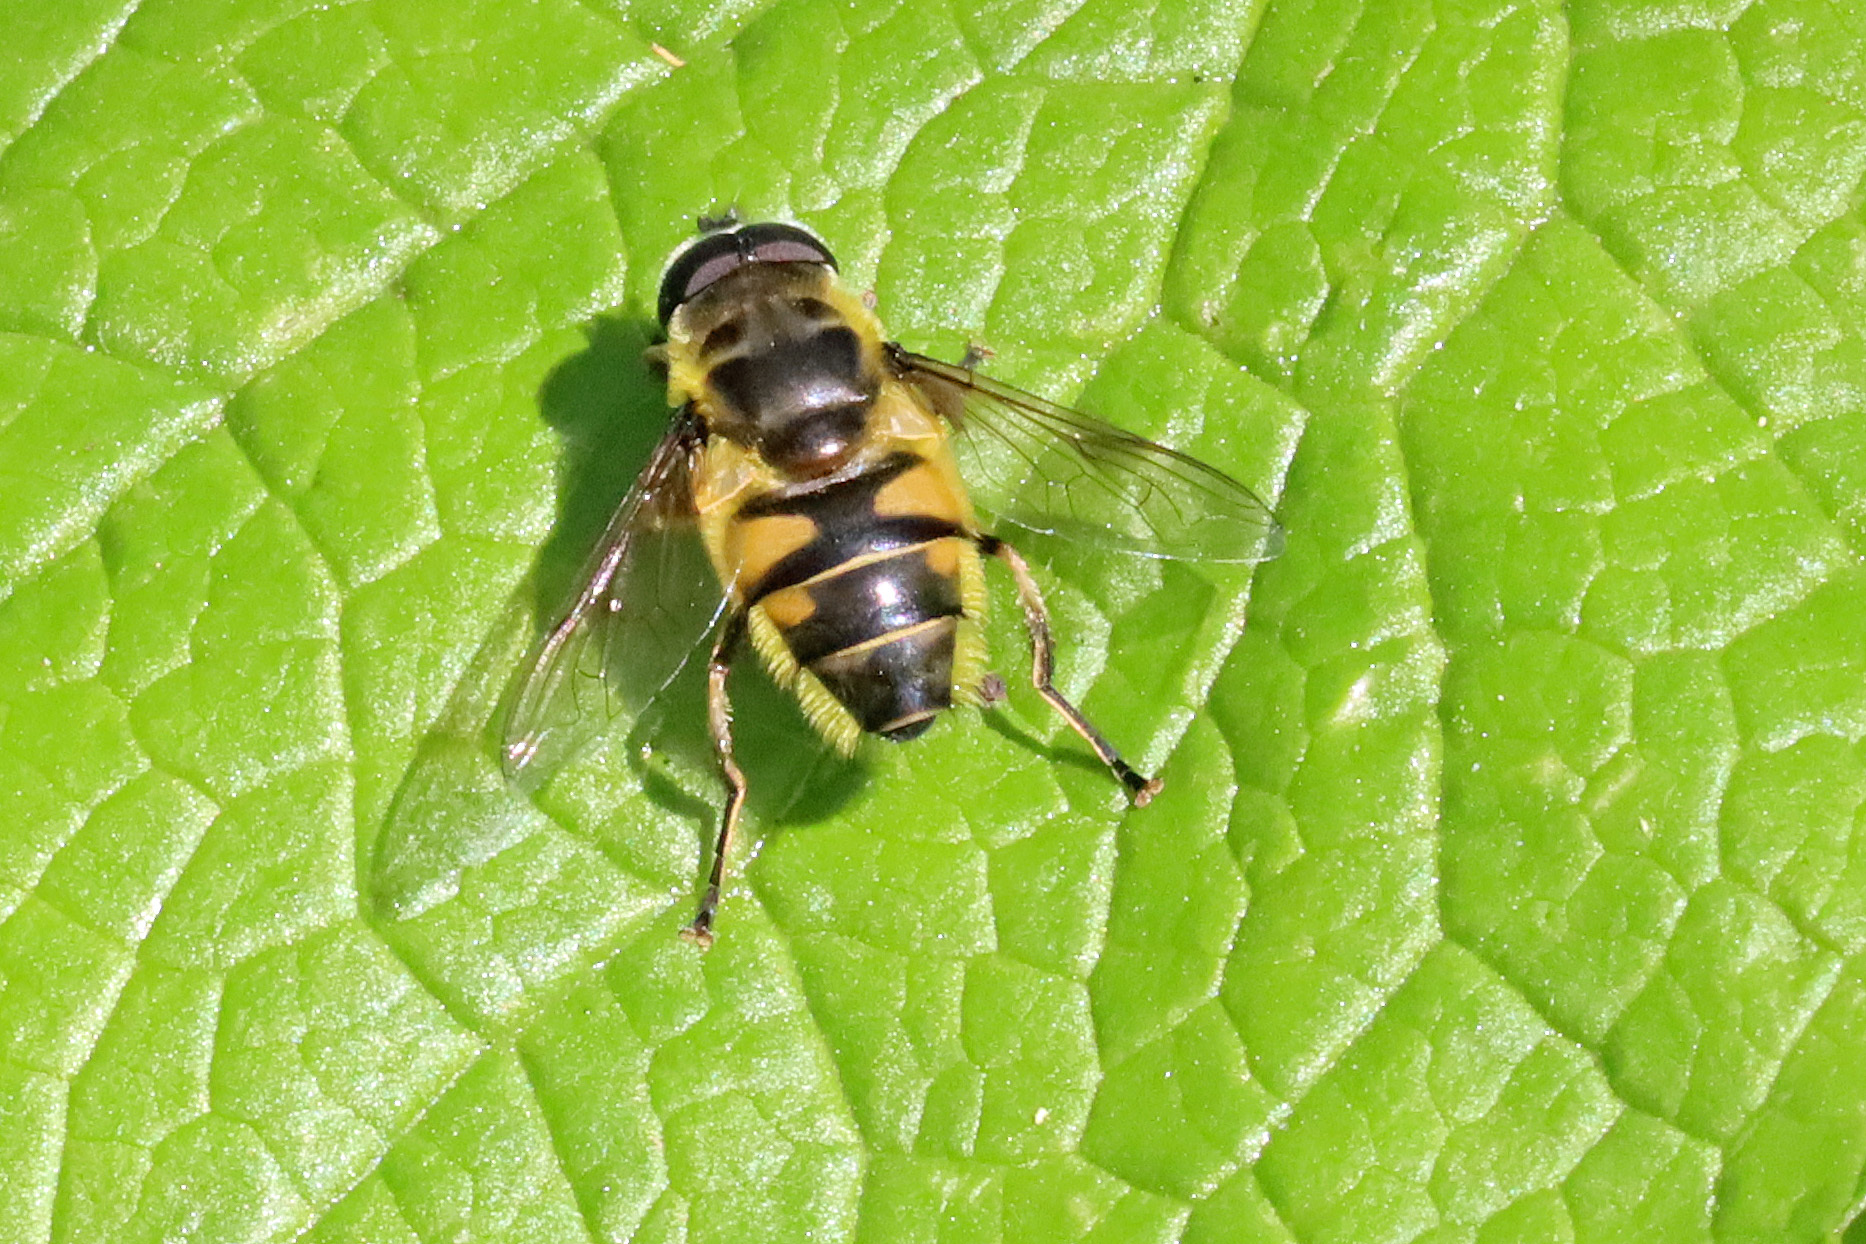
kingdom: Animalia
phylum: Arthropoda
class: Insecta
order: Diptera
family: Syrphidae
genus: Myathropa
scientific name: Myathropa florea
